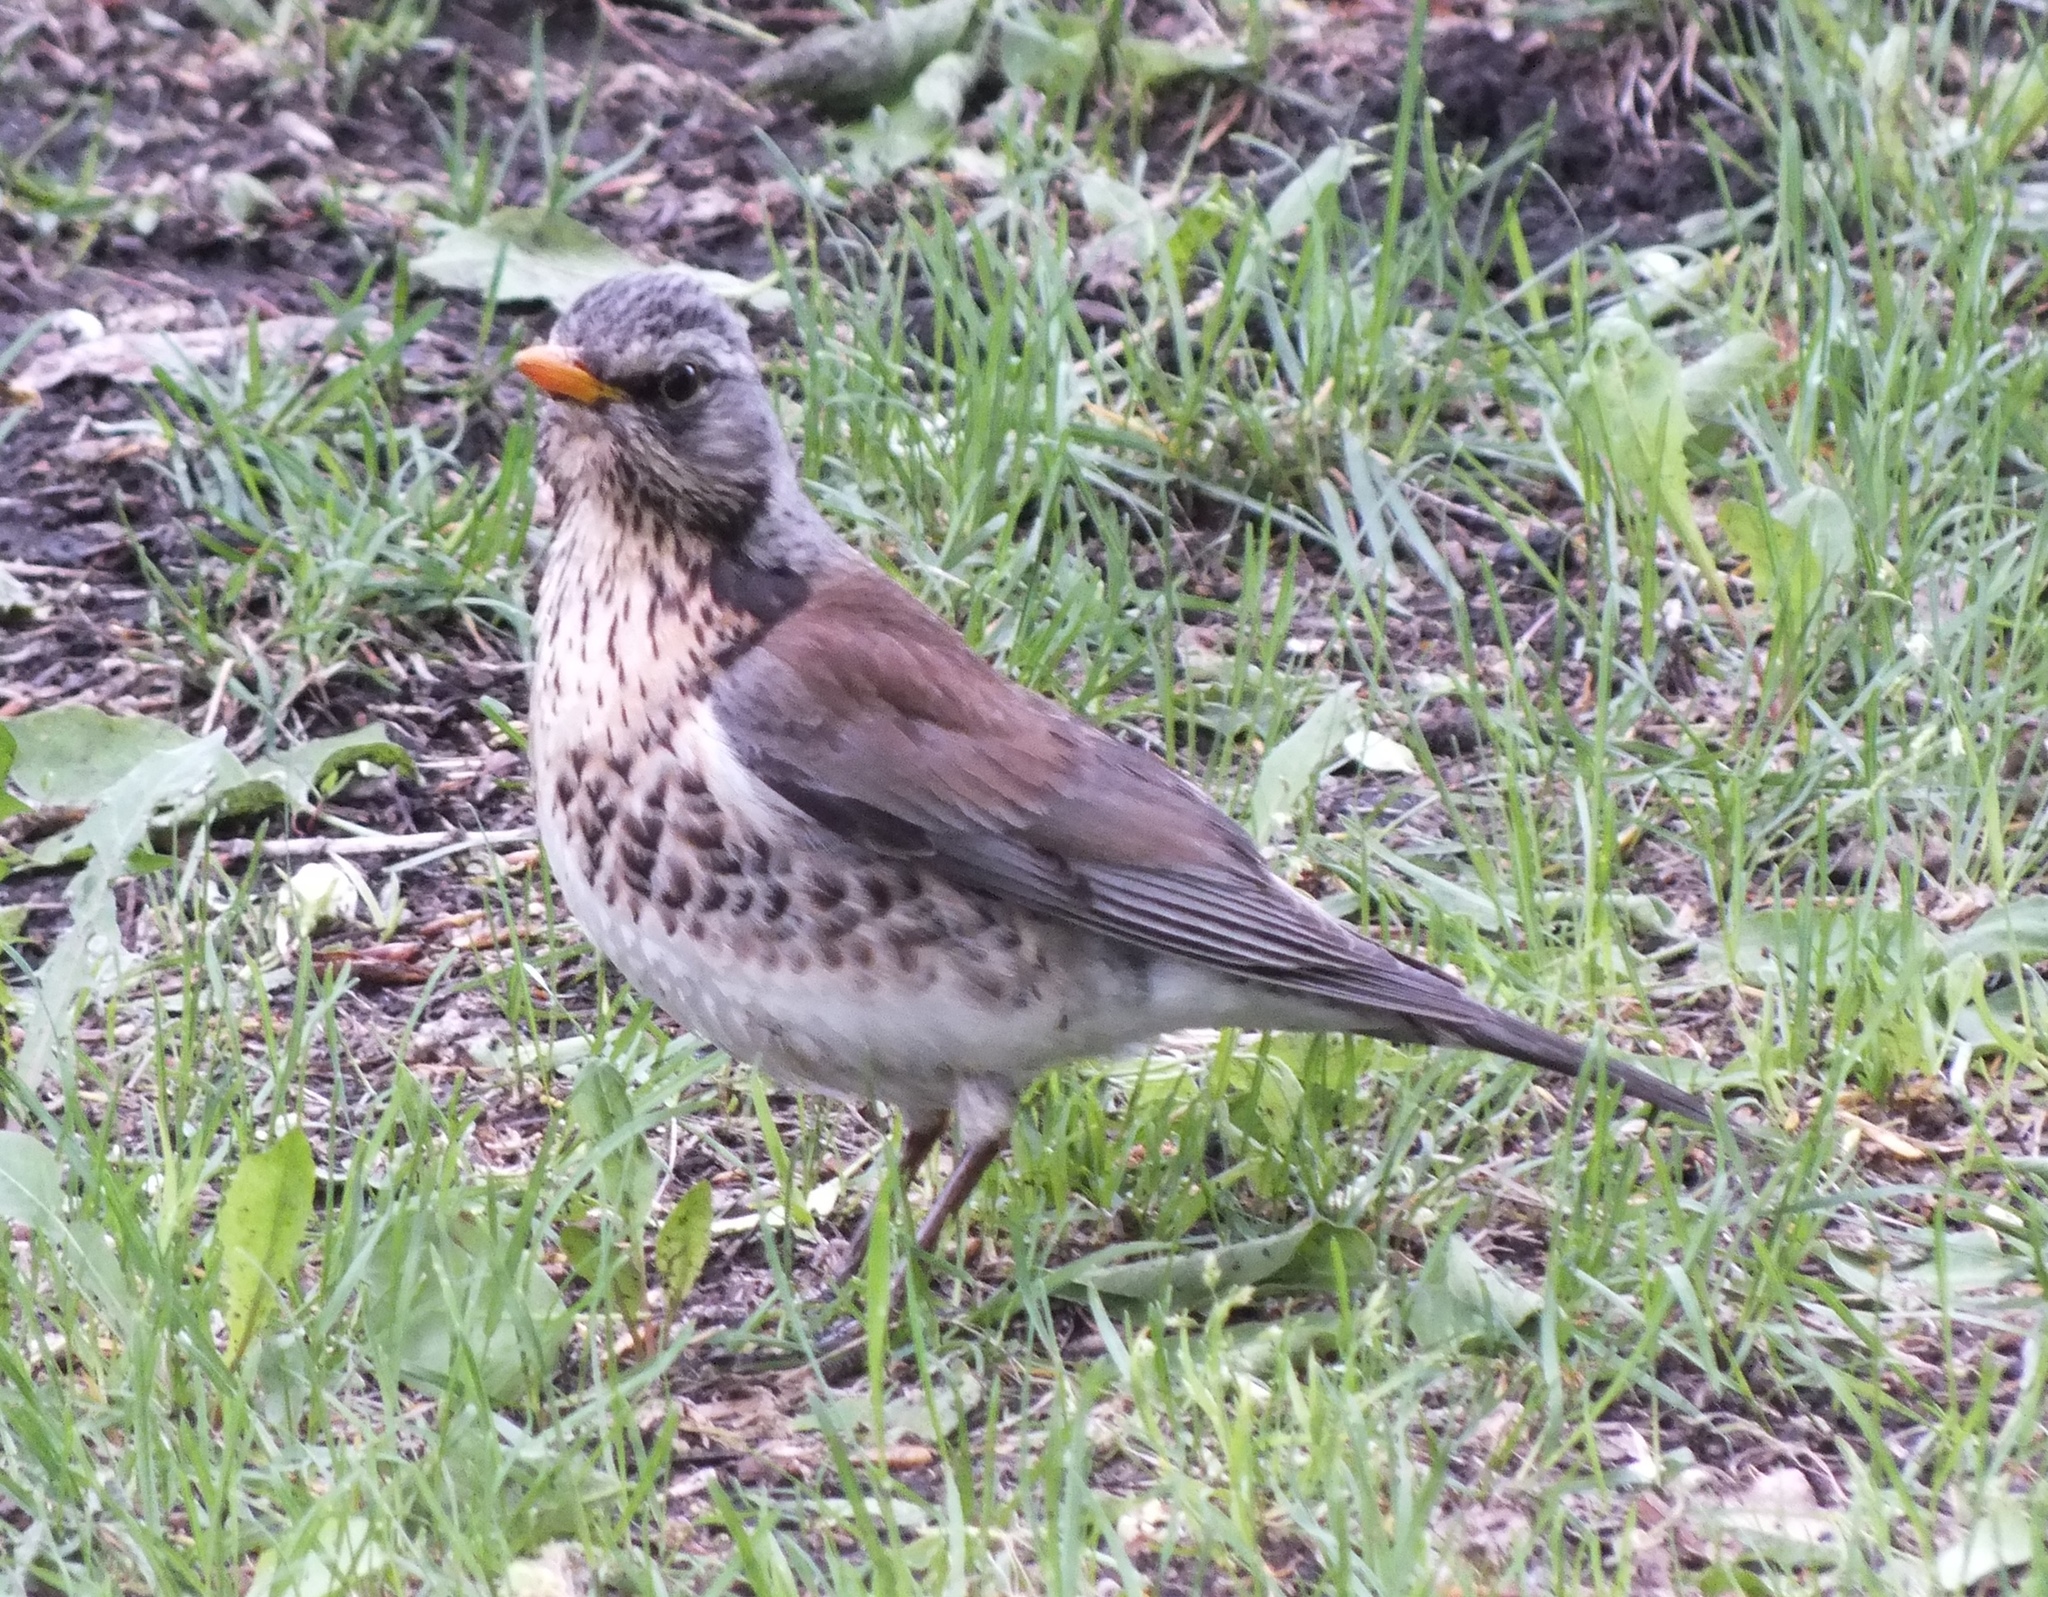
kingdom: Animalia
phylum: Chordata
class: Aves
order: Passeriformes
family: Turdidae
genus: Turdus
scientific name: Turdus pilaris
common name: Fieldfare
